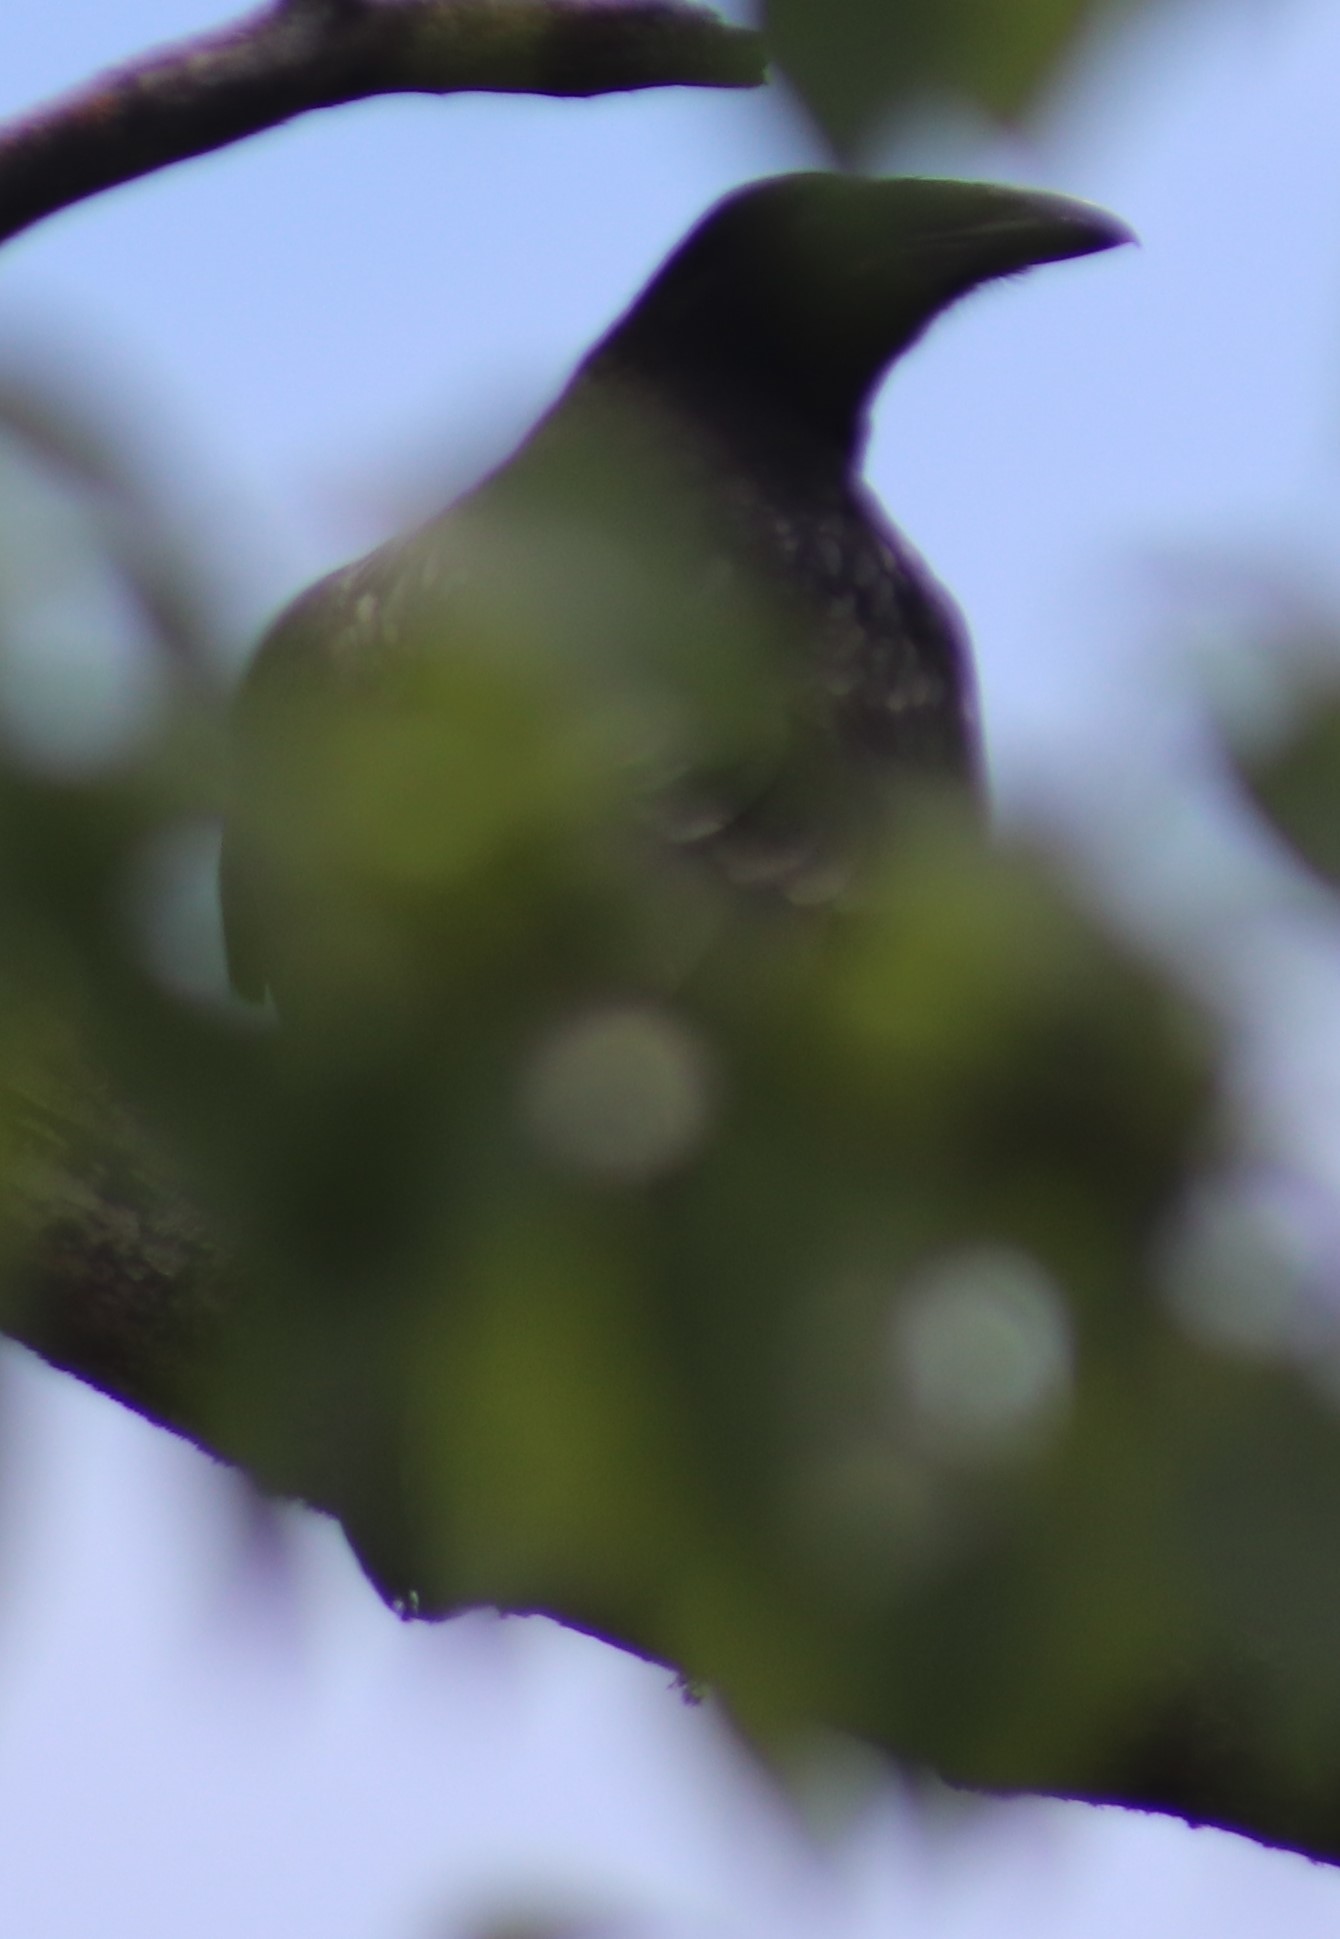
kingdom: Animalia
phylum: Chordata
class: Aves
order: Passeriformes
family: Corvidae
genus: Corvus
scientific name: Corvus corax
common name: Common raven
